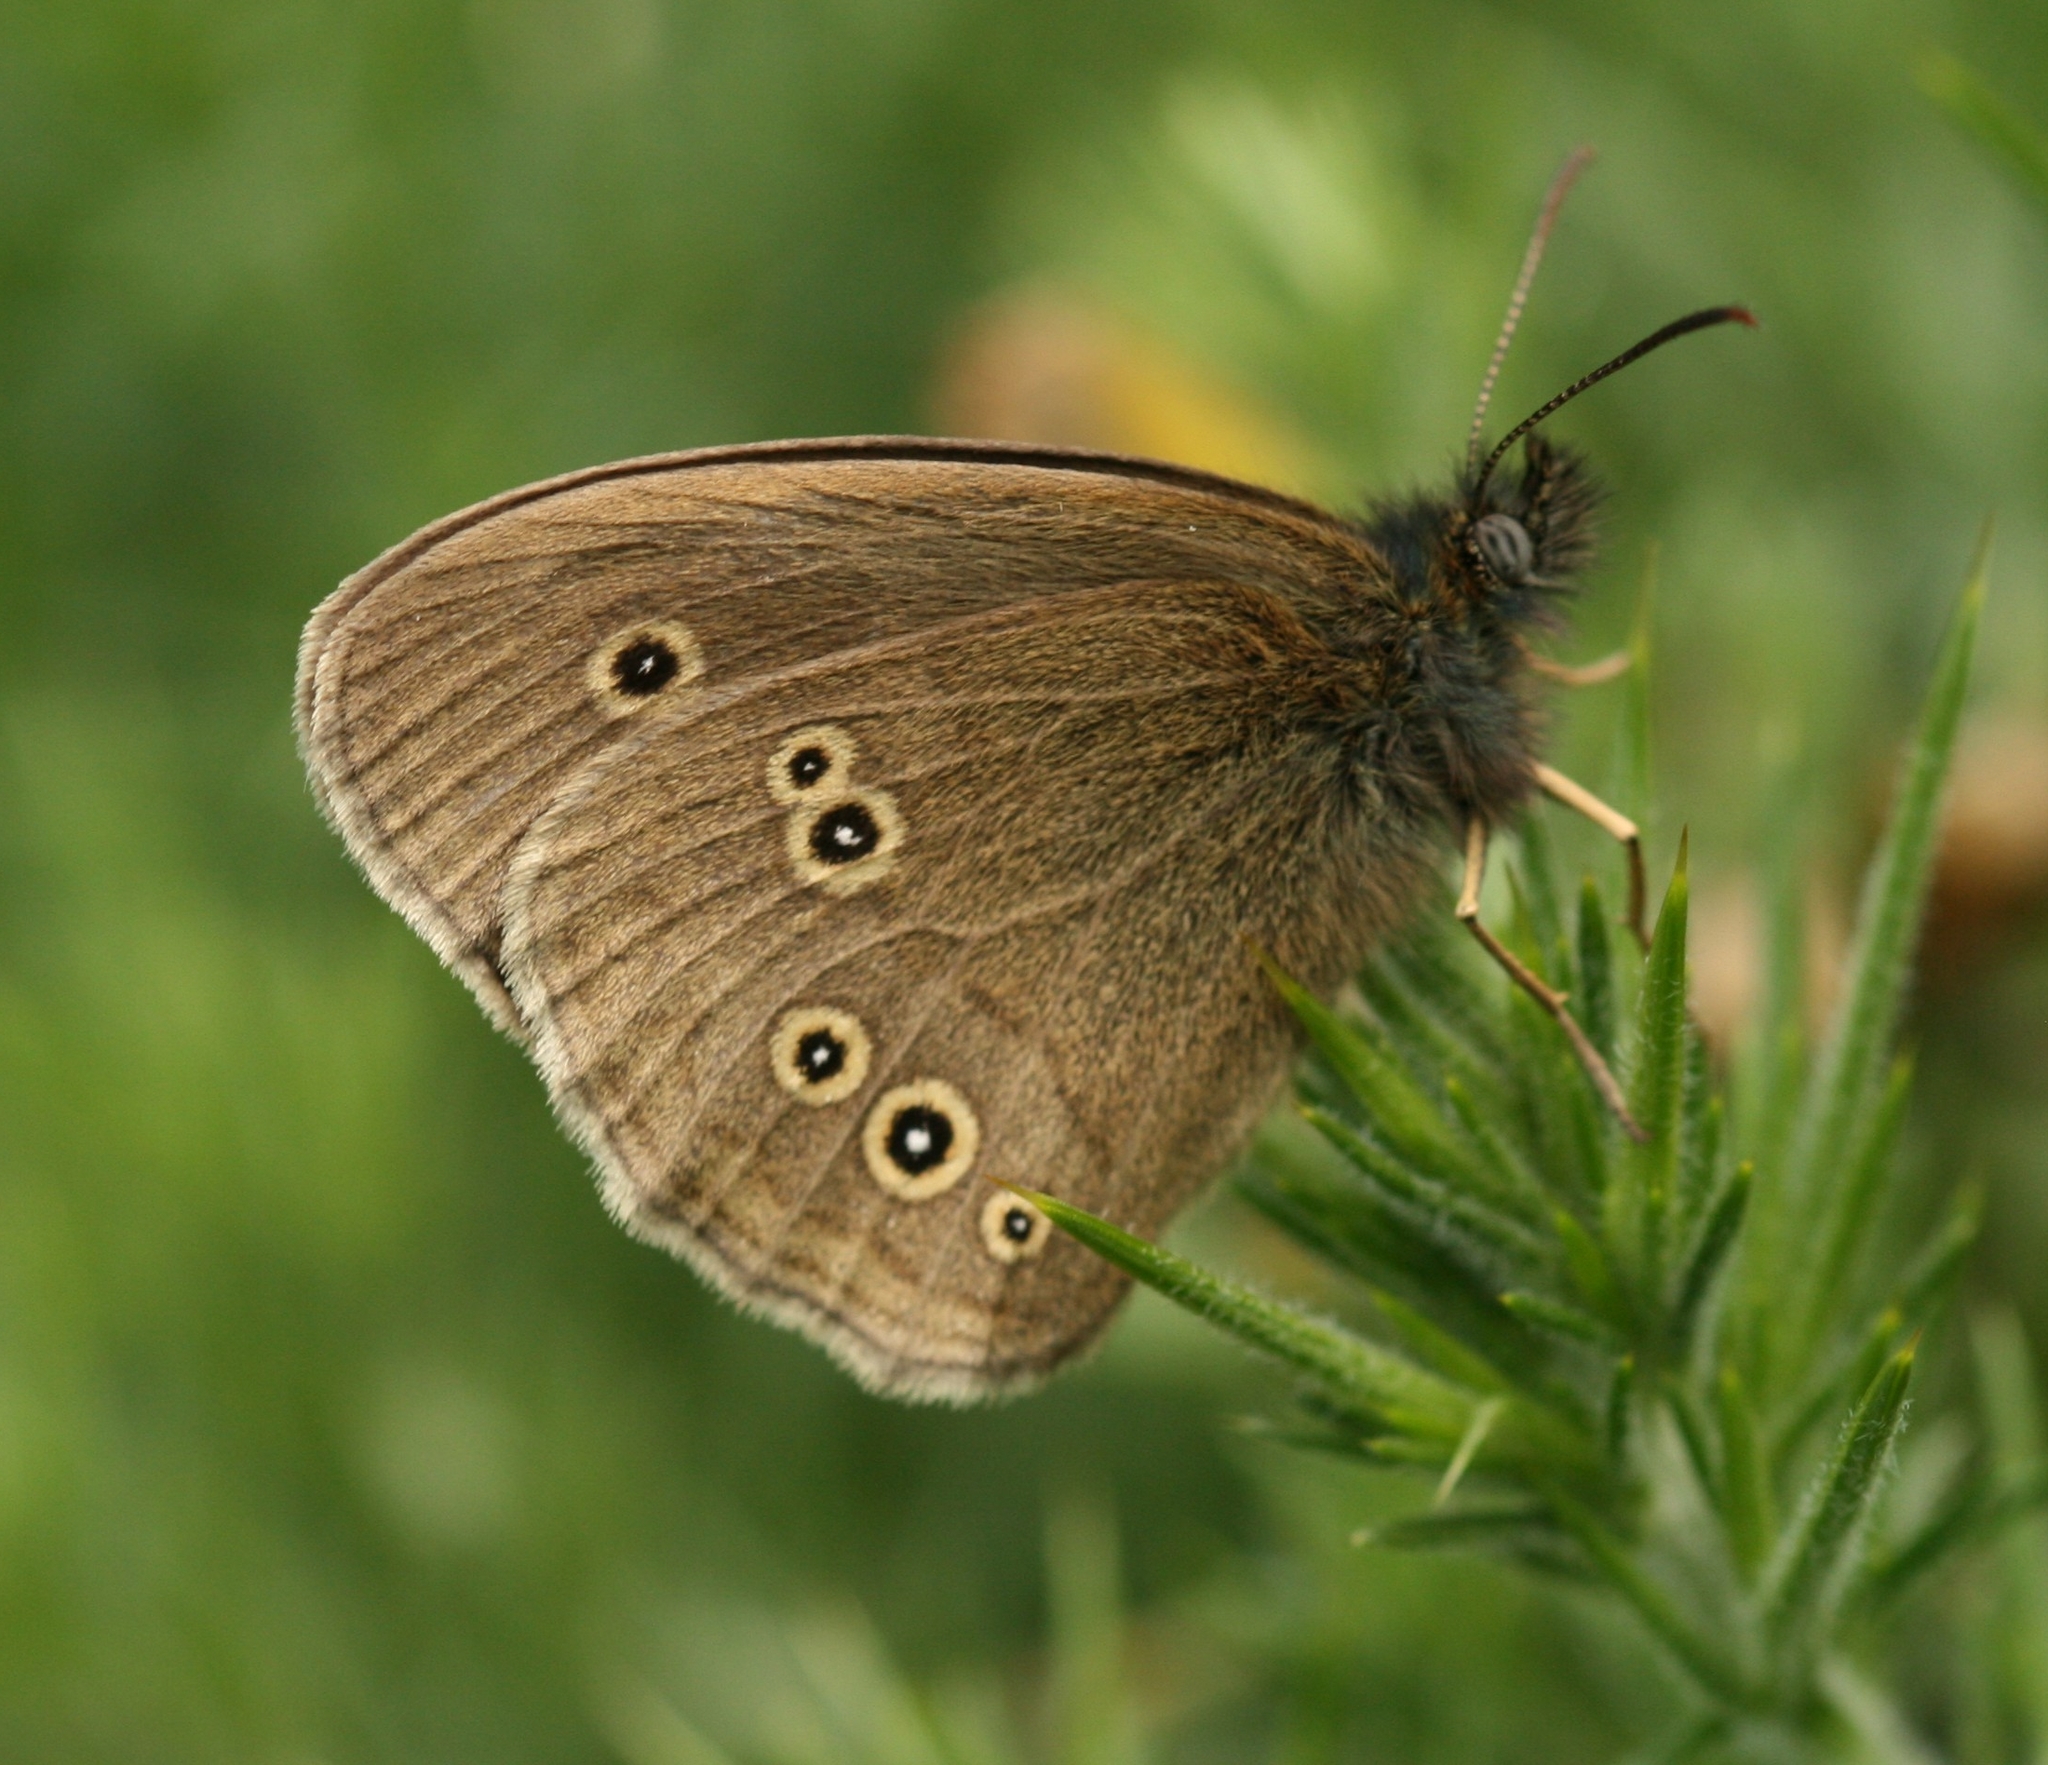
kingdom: Animalia
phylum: Arthropoda
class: Insecta
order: Lepidoptera
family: Nymphalidae
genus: Aphantopus
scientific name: Aphantopus hyperantus
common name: Ringlet
